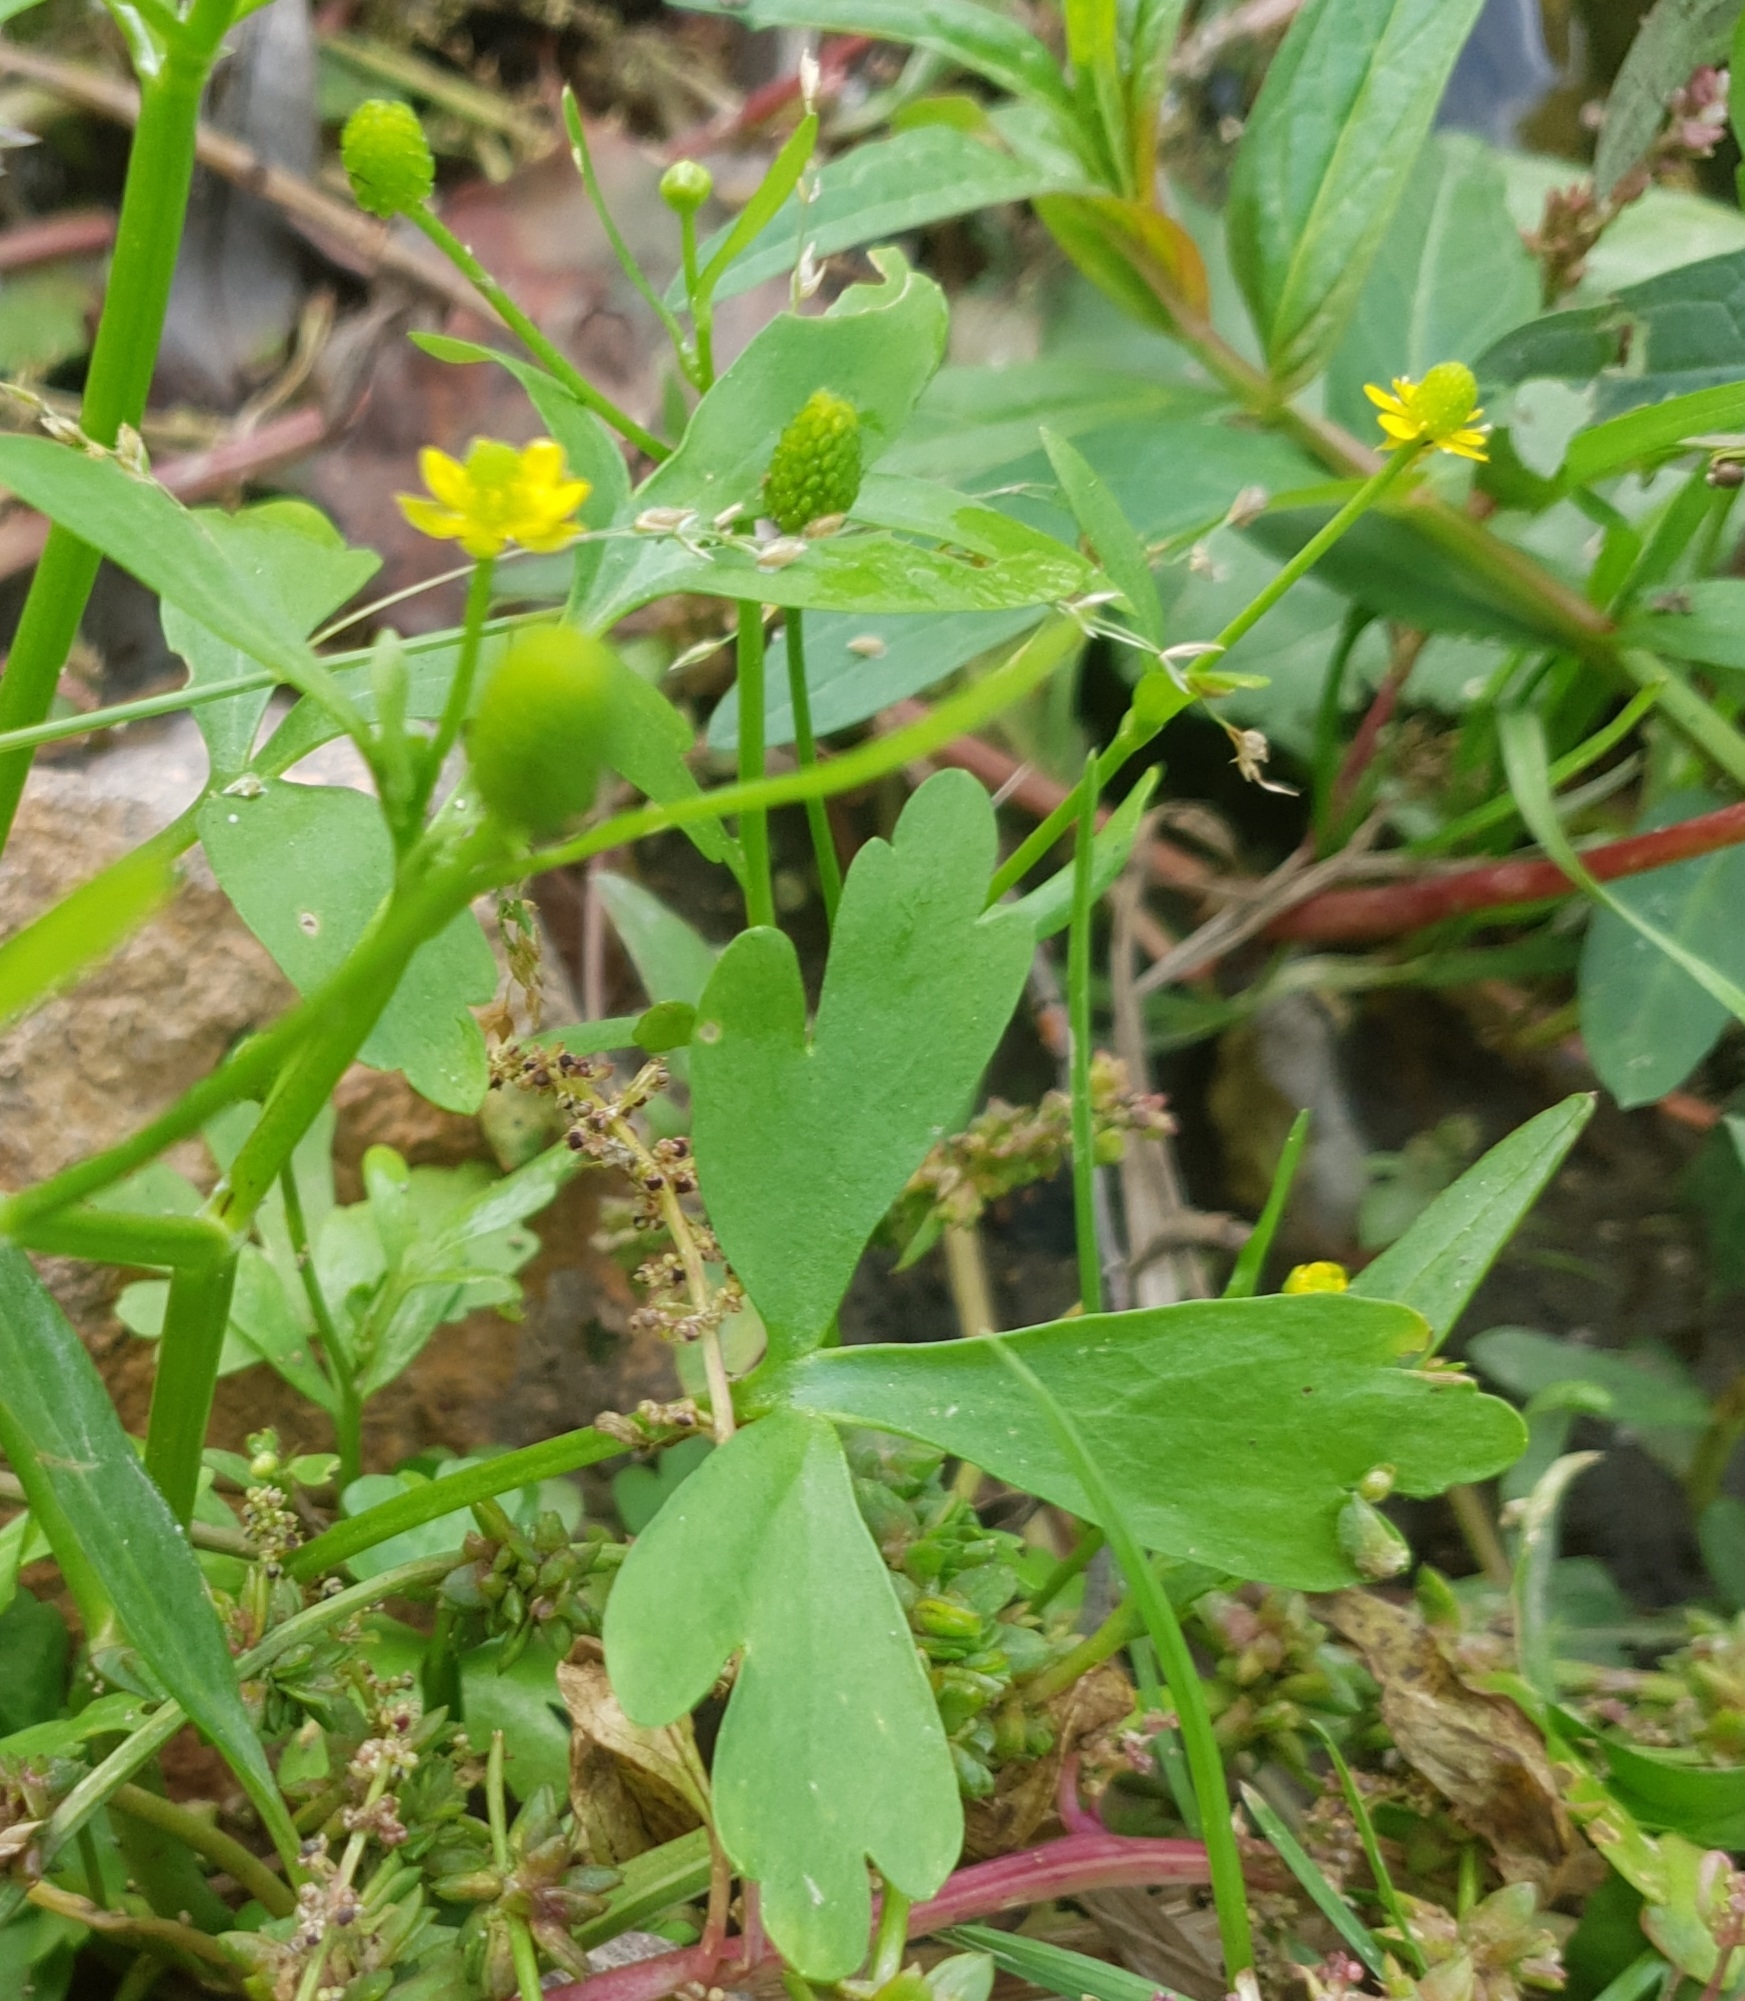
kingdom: Plantae
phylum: Tracheophyta
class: Magnoliopsida
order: Ranunculales
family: Ranunculaceae
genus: Ranunculus
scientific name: Ranunculus sceleratus
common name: Celery-leaved buttercup
